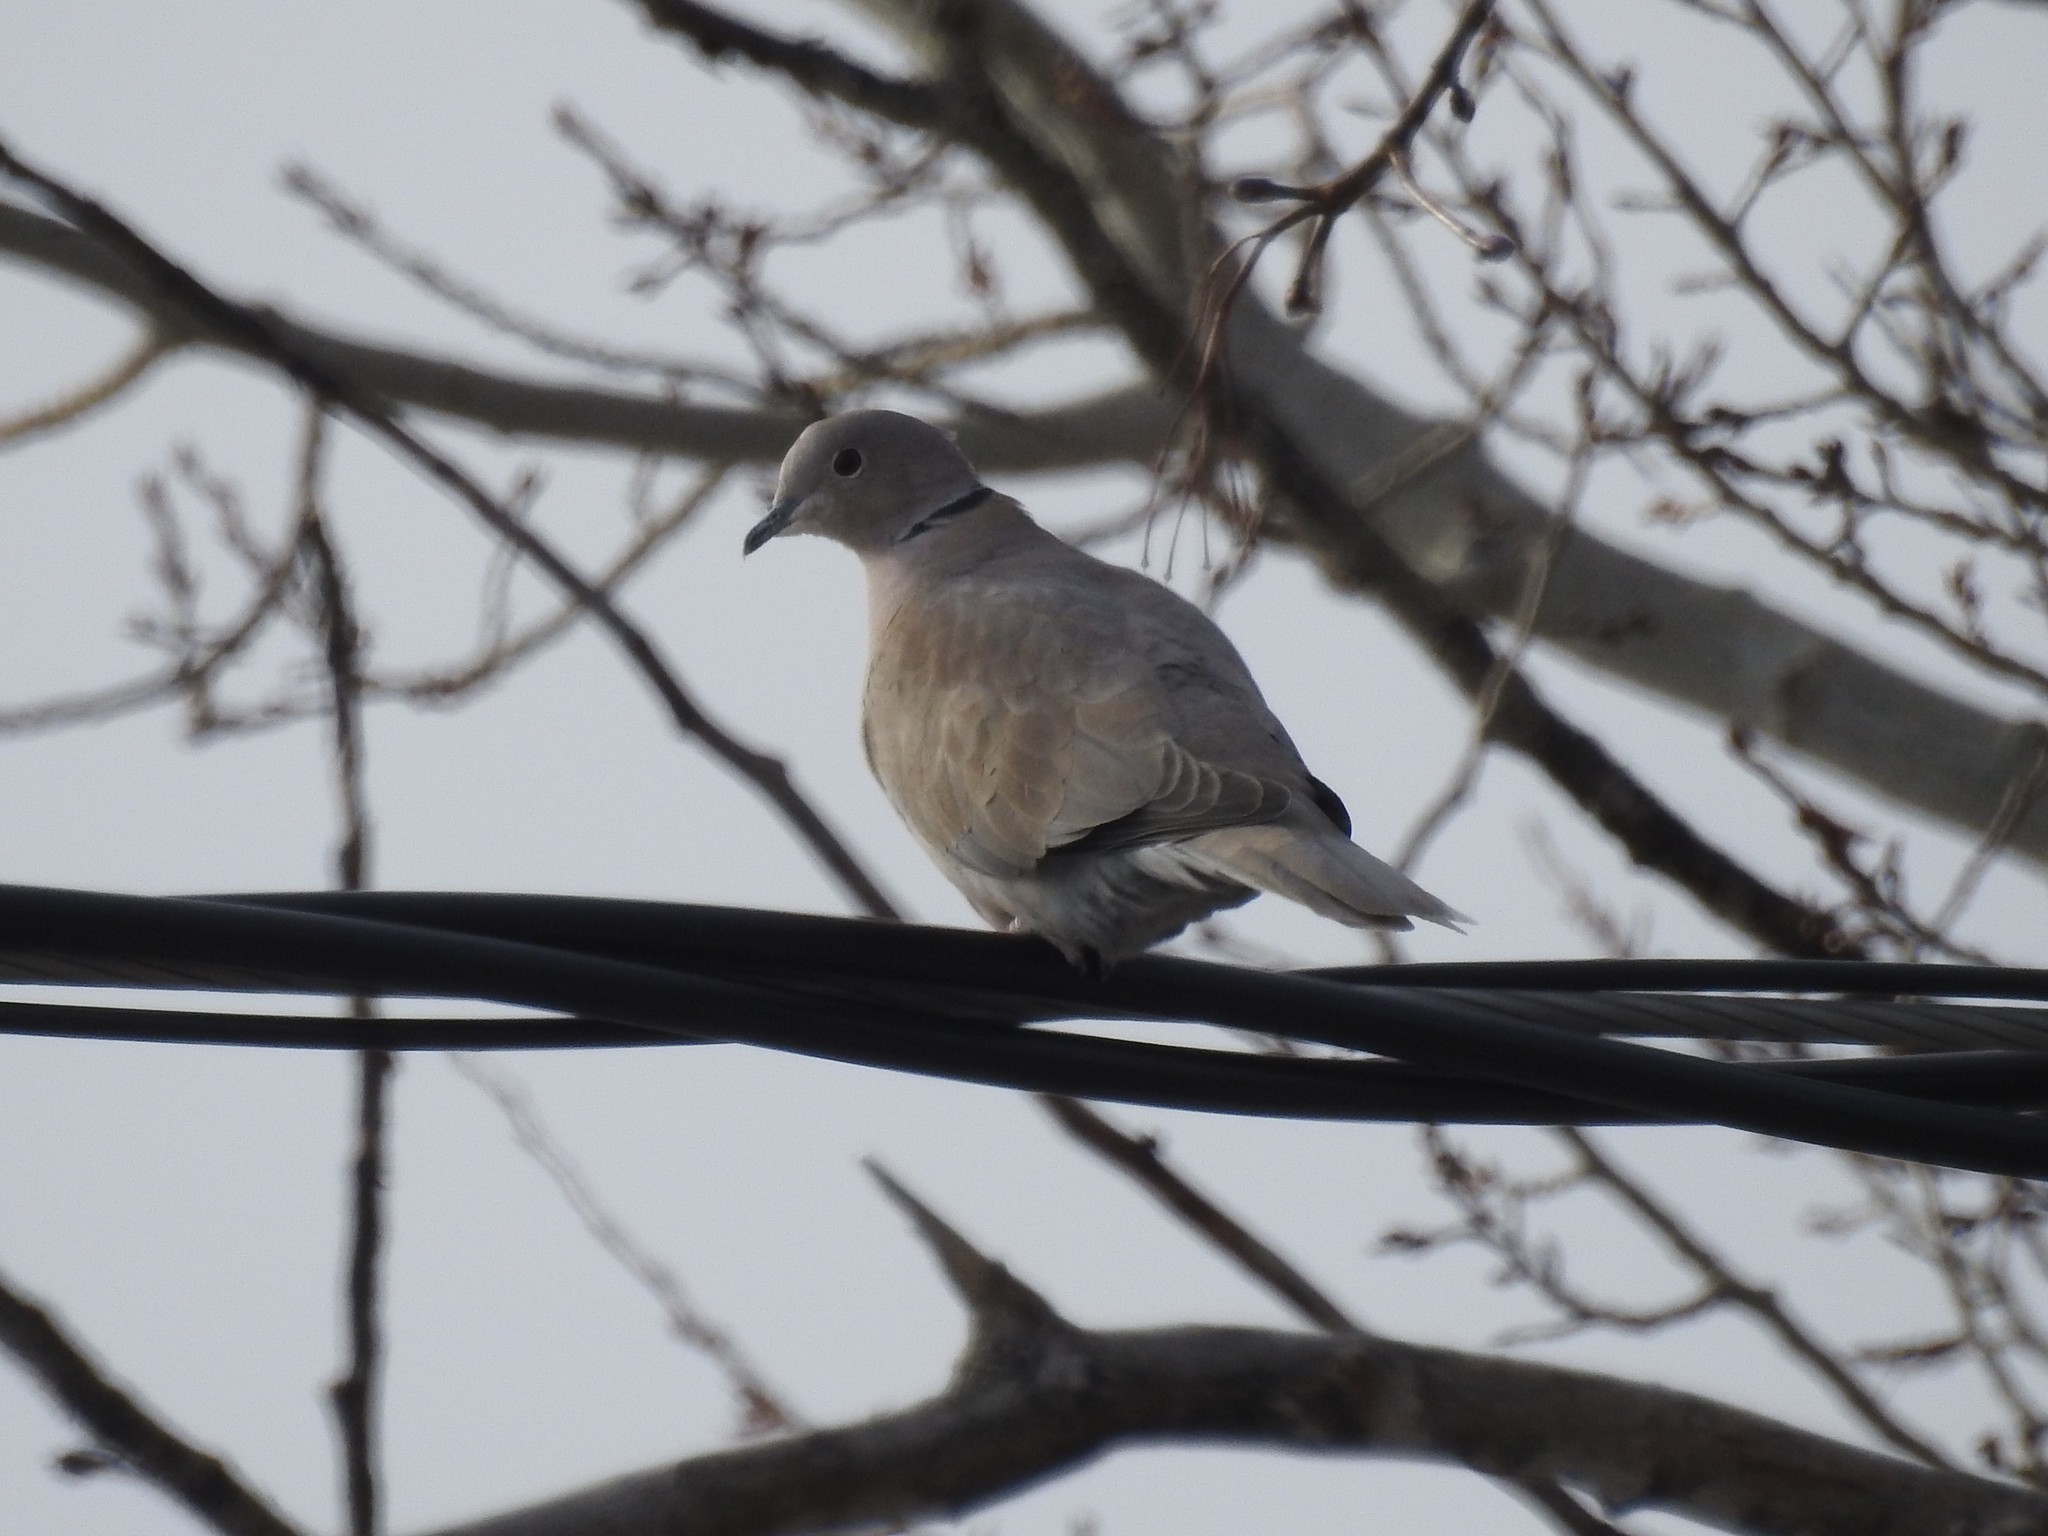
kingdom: Animalia
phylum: Chordata
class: Aves
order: Columbiformes
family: Columbidae
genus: Streptopelia
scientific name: Streptopelia decaocto
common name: Eurasian collared dove
